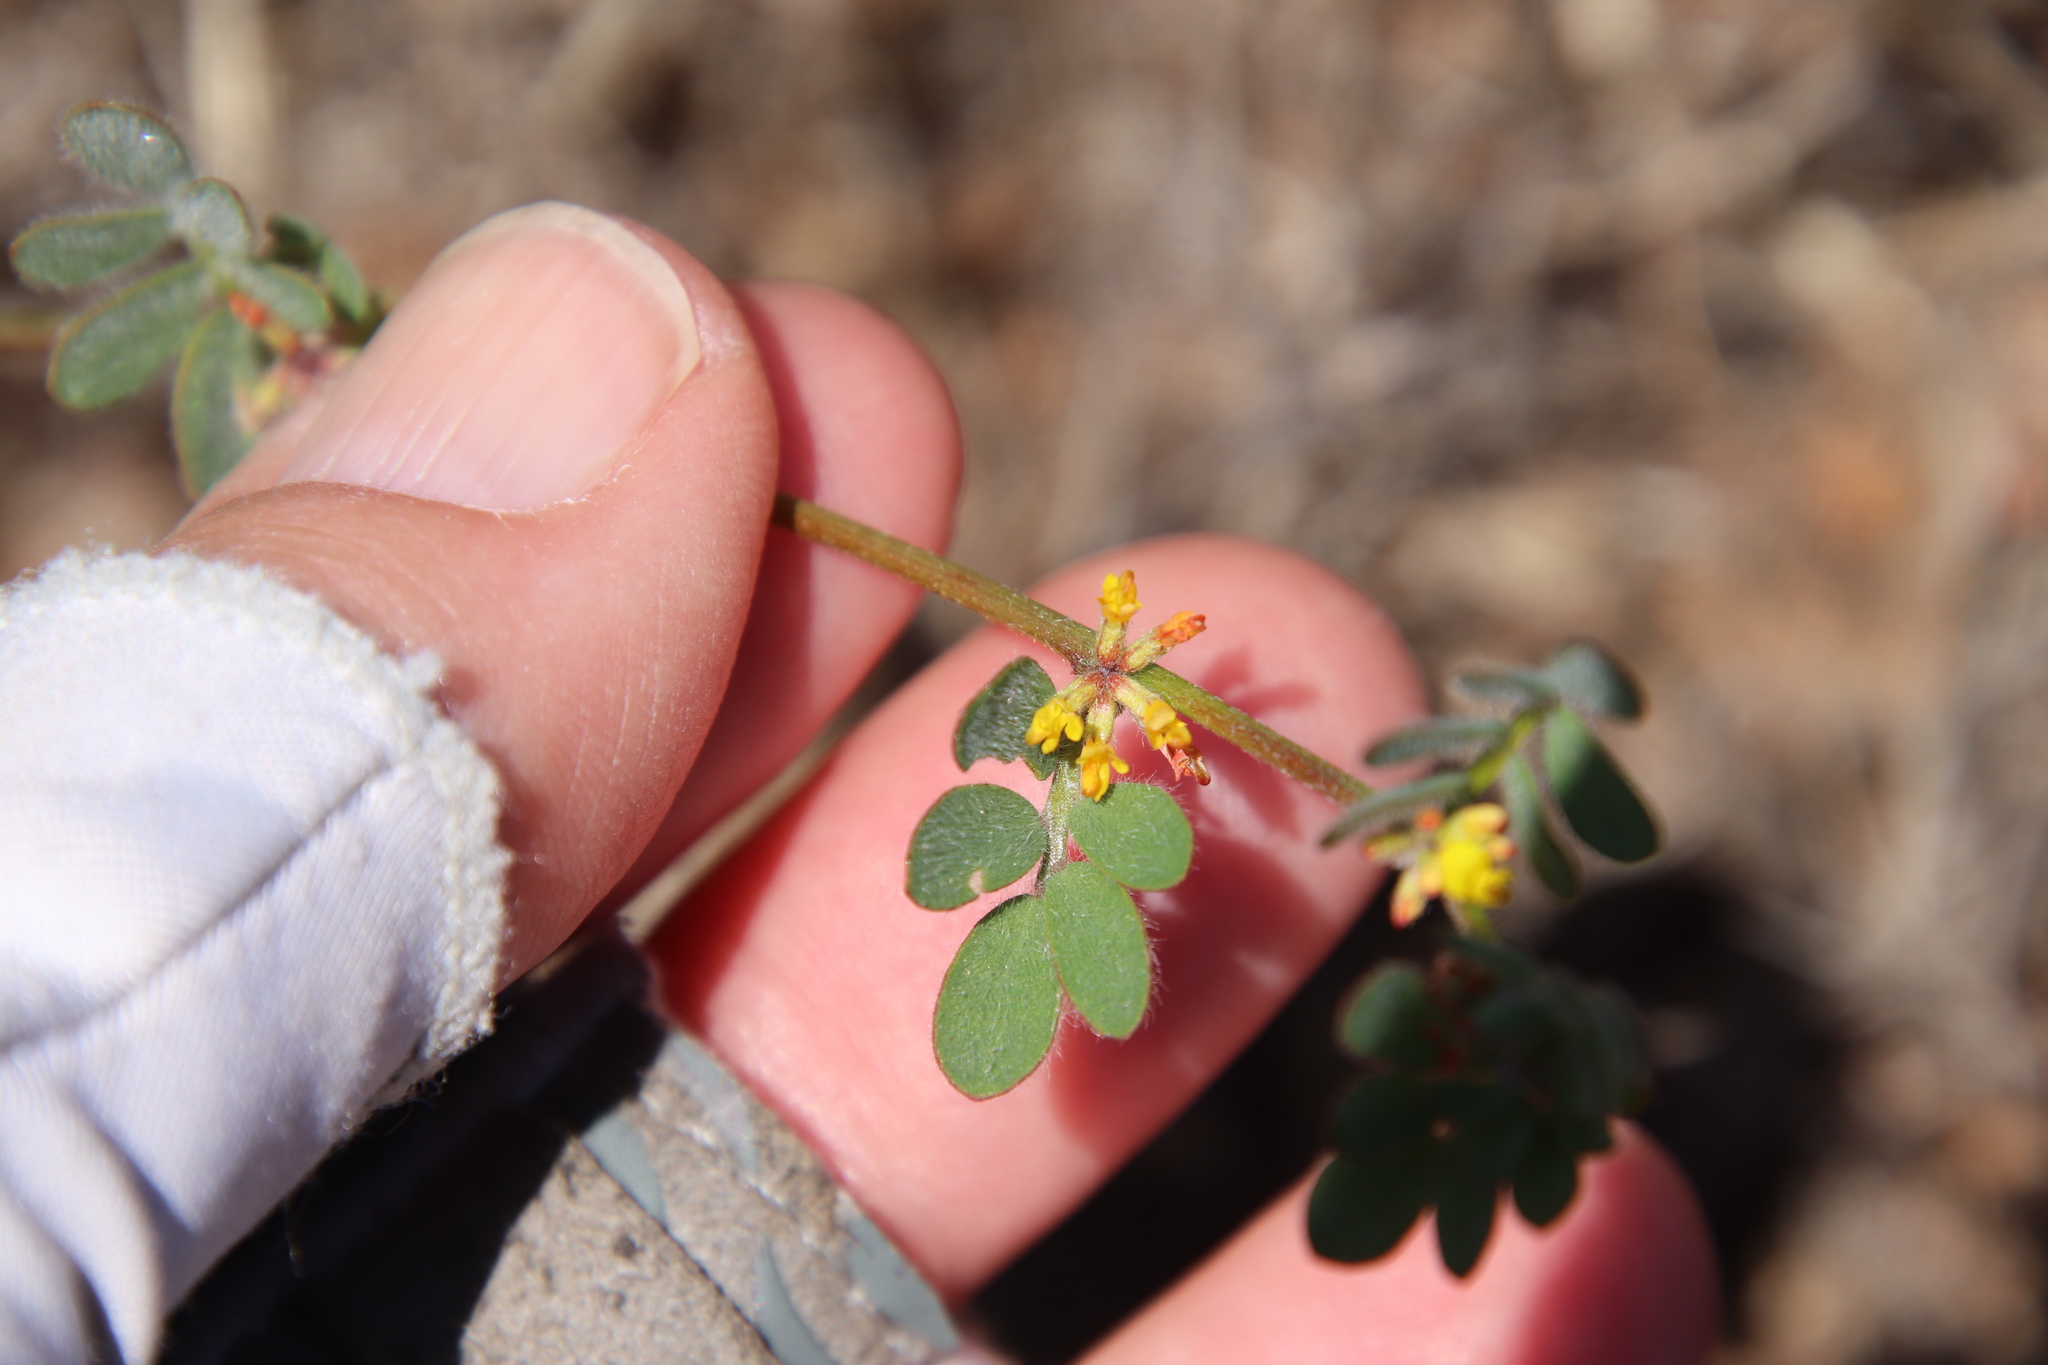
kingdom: Plantae
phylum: Tracheophyta
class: Magnoliopsida
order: Fabales
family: Fabaceae
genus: Acmispon
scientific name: Acmispon micranthus
